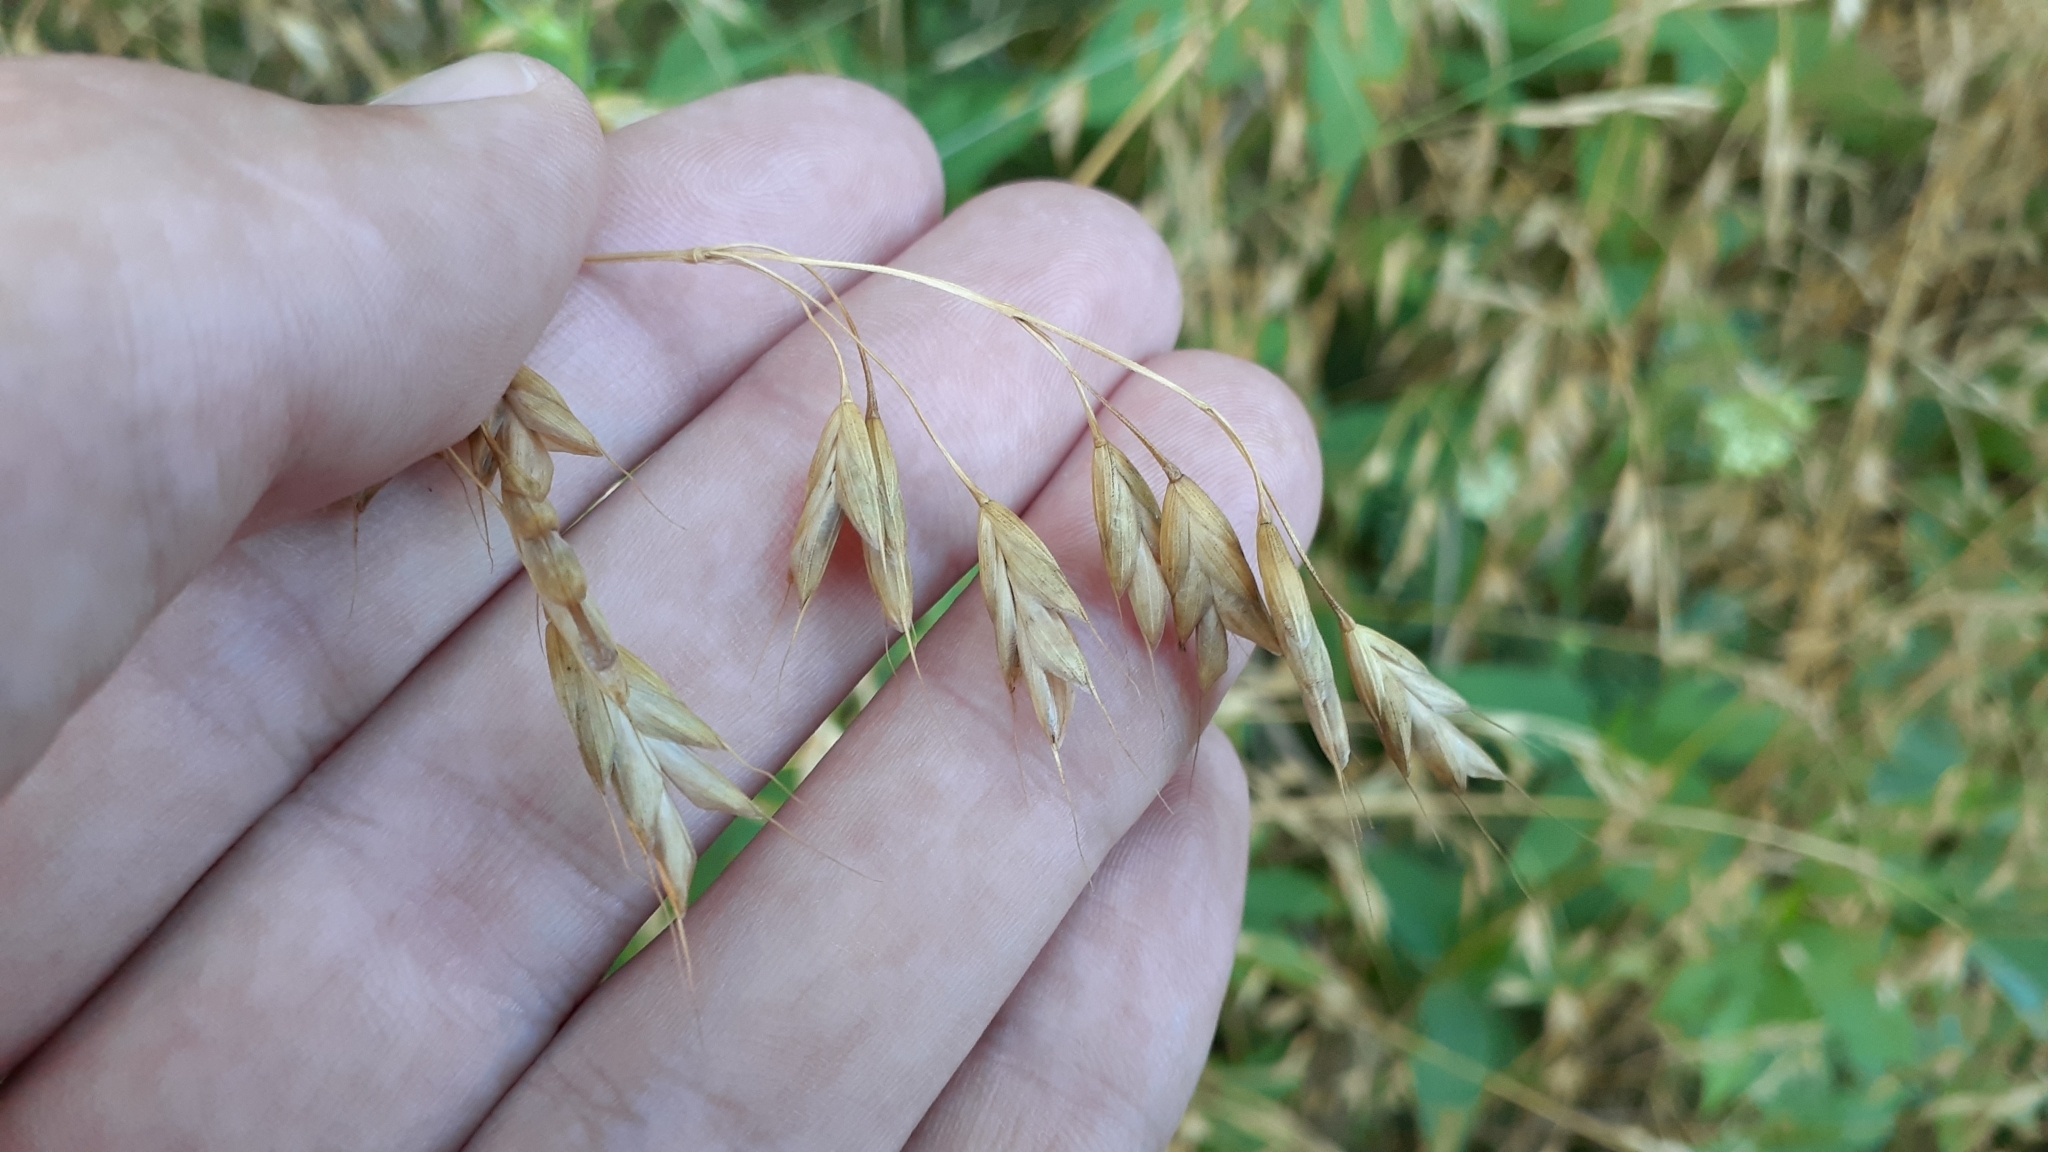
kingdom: Plantae
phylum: Tracheophyta
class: Liliopsida
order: Poales
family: Poaceae
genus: Bromus
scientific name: Bromus japonicus
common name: Japanese brome
